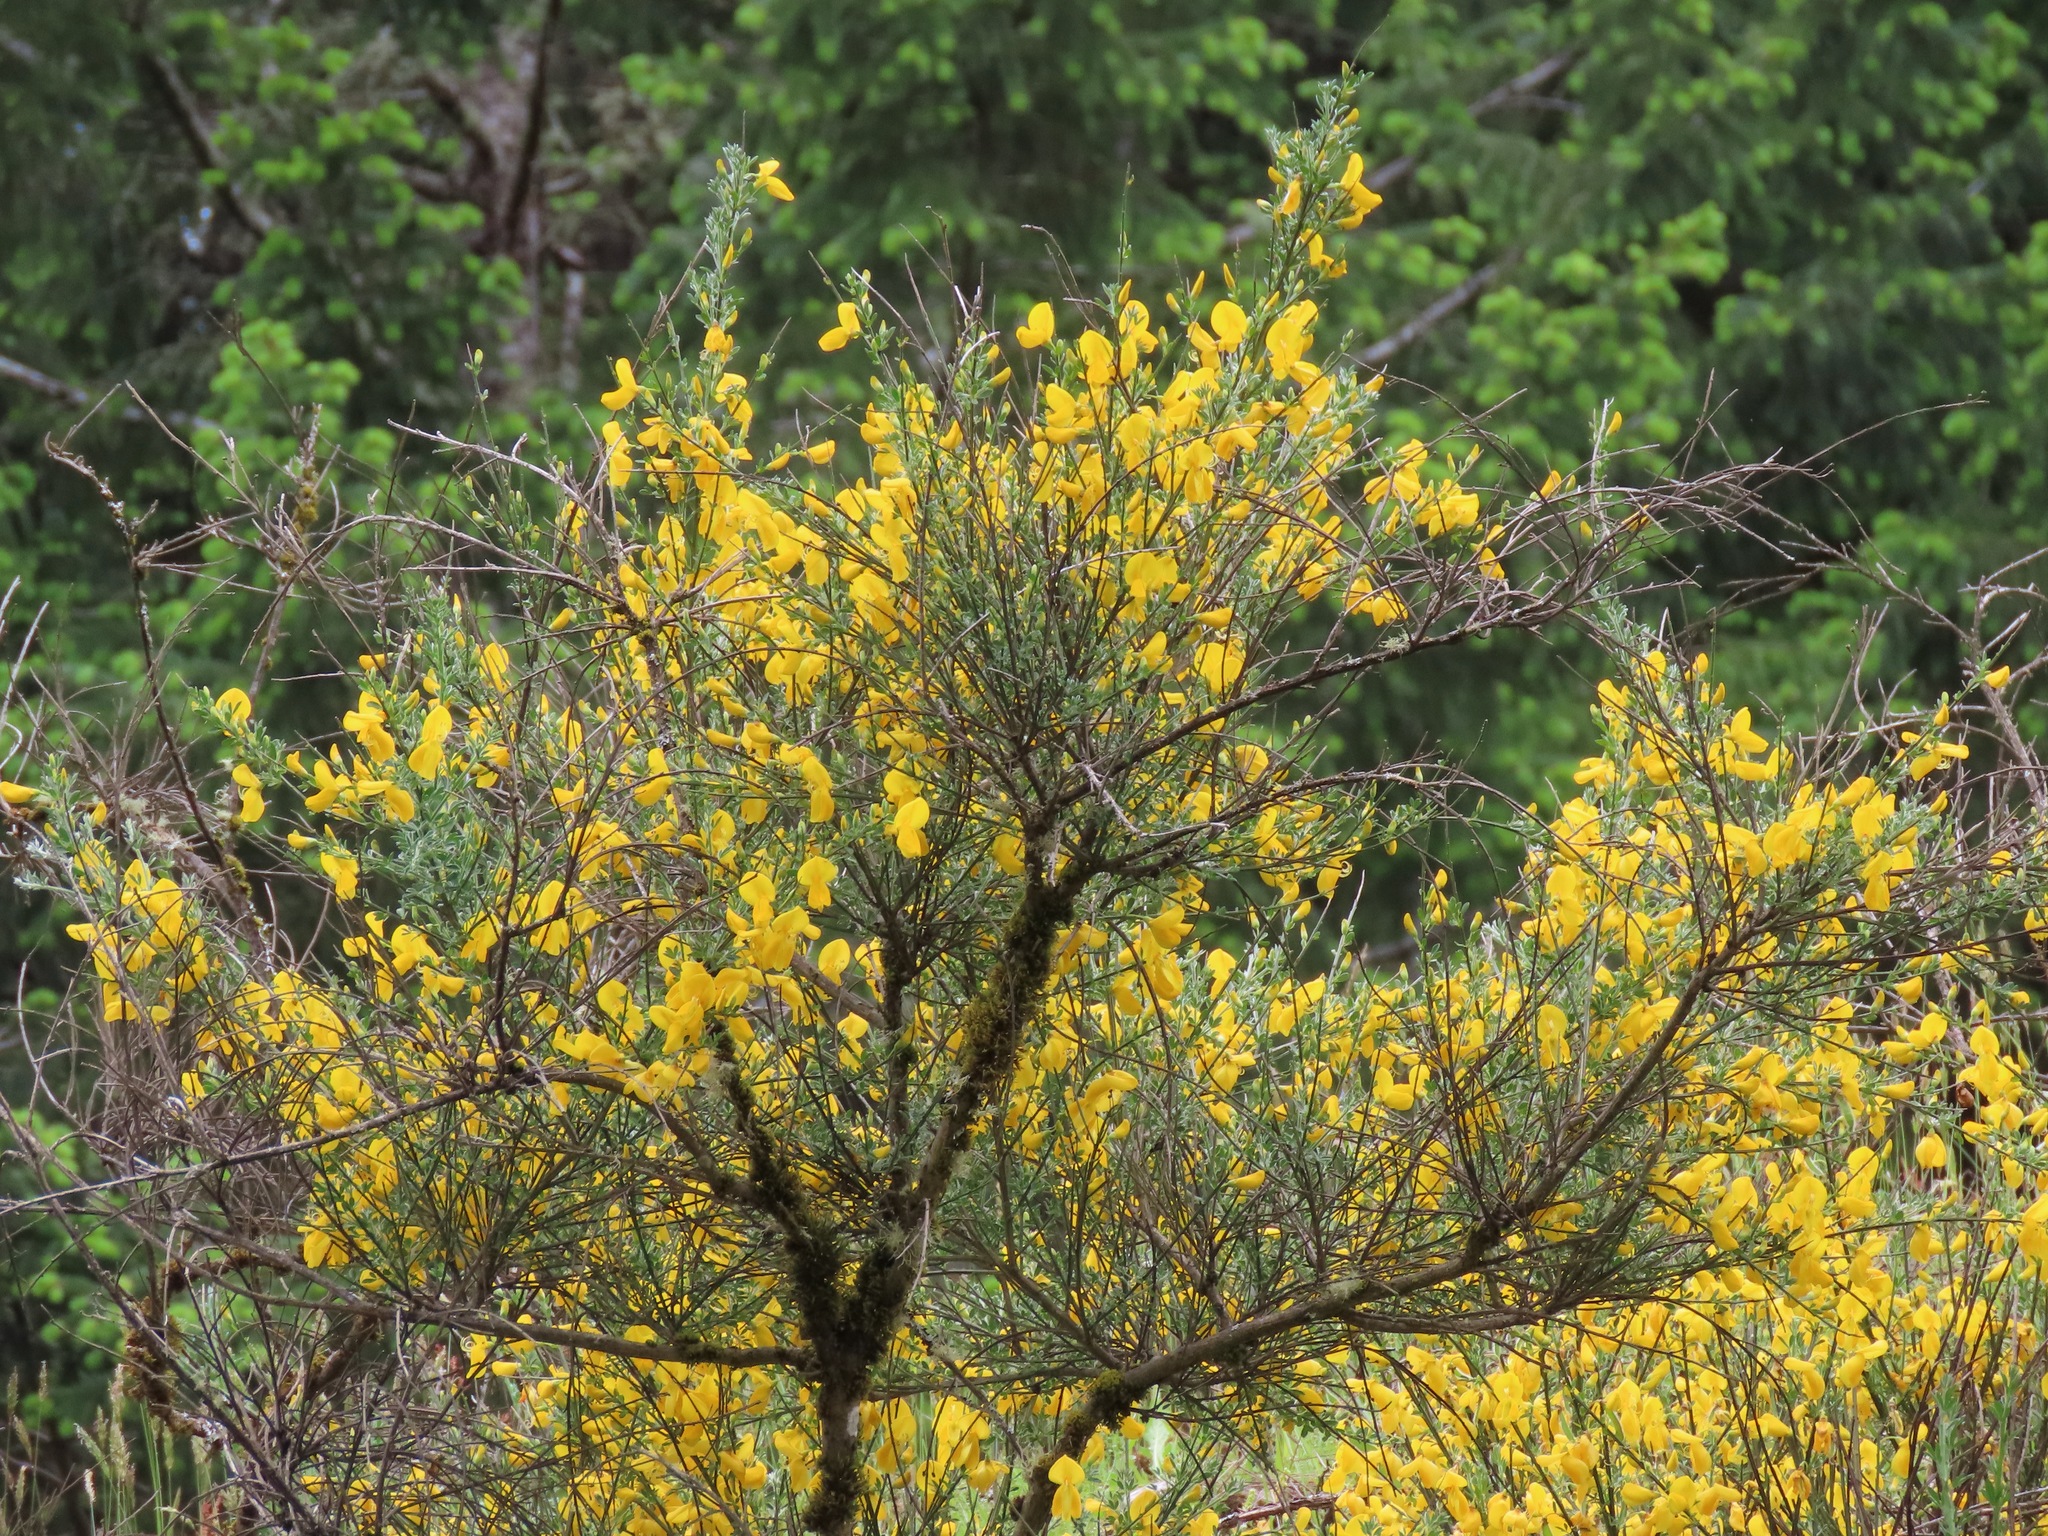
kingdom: Plantae
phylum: Tracheophyta
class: Magnoliopsida
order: Fabales
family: Fabaceae
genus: Cytisus
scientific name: Cytisus scoparius
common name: Scotch broom
